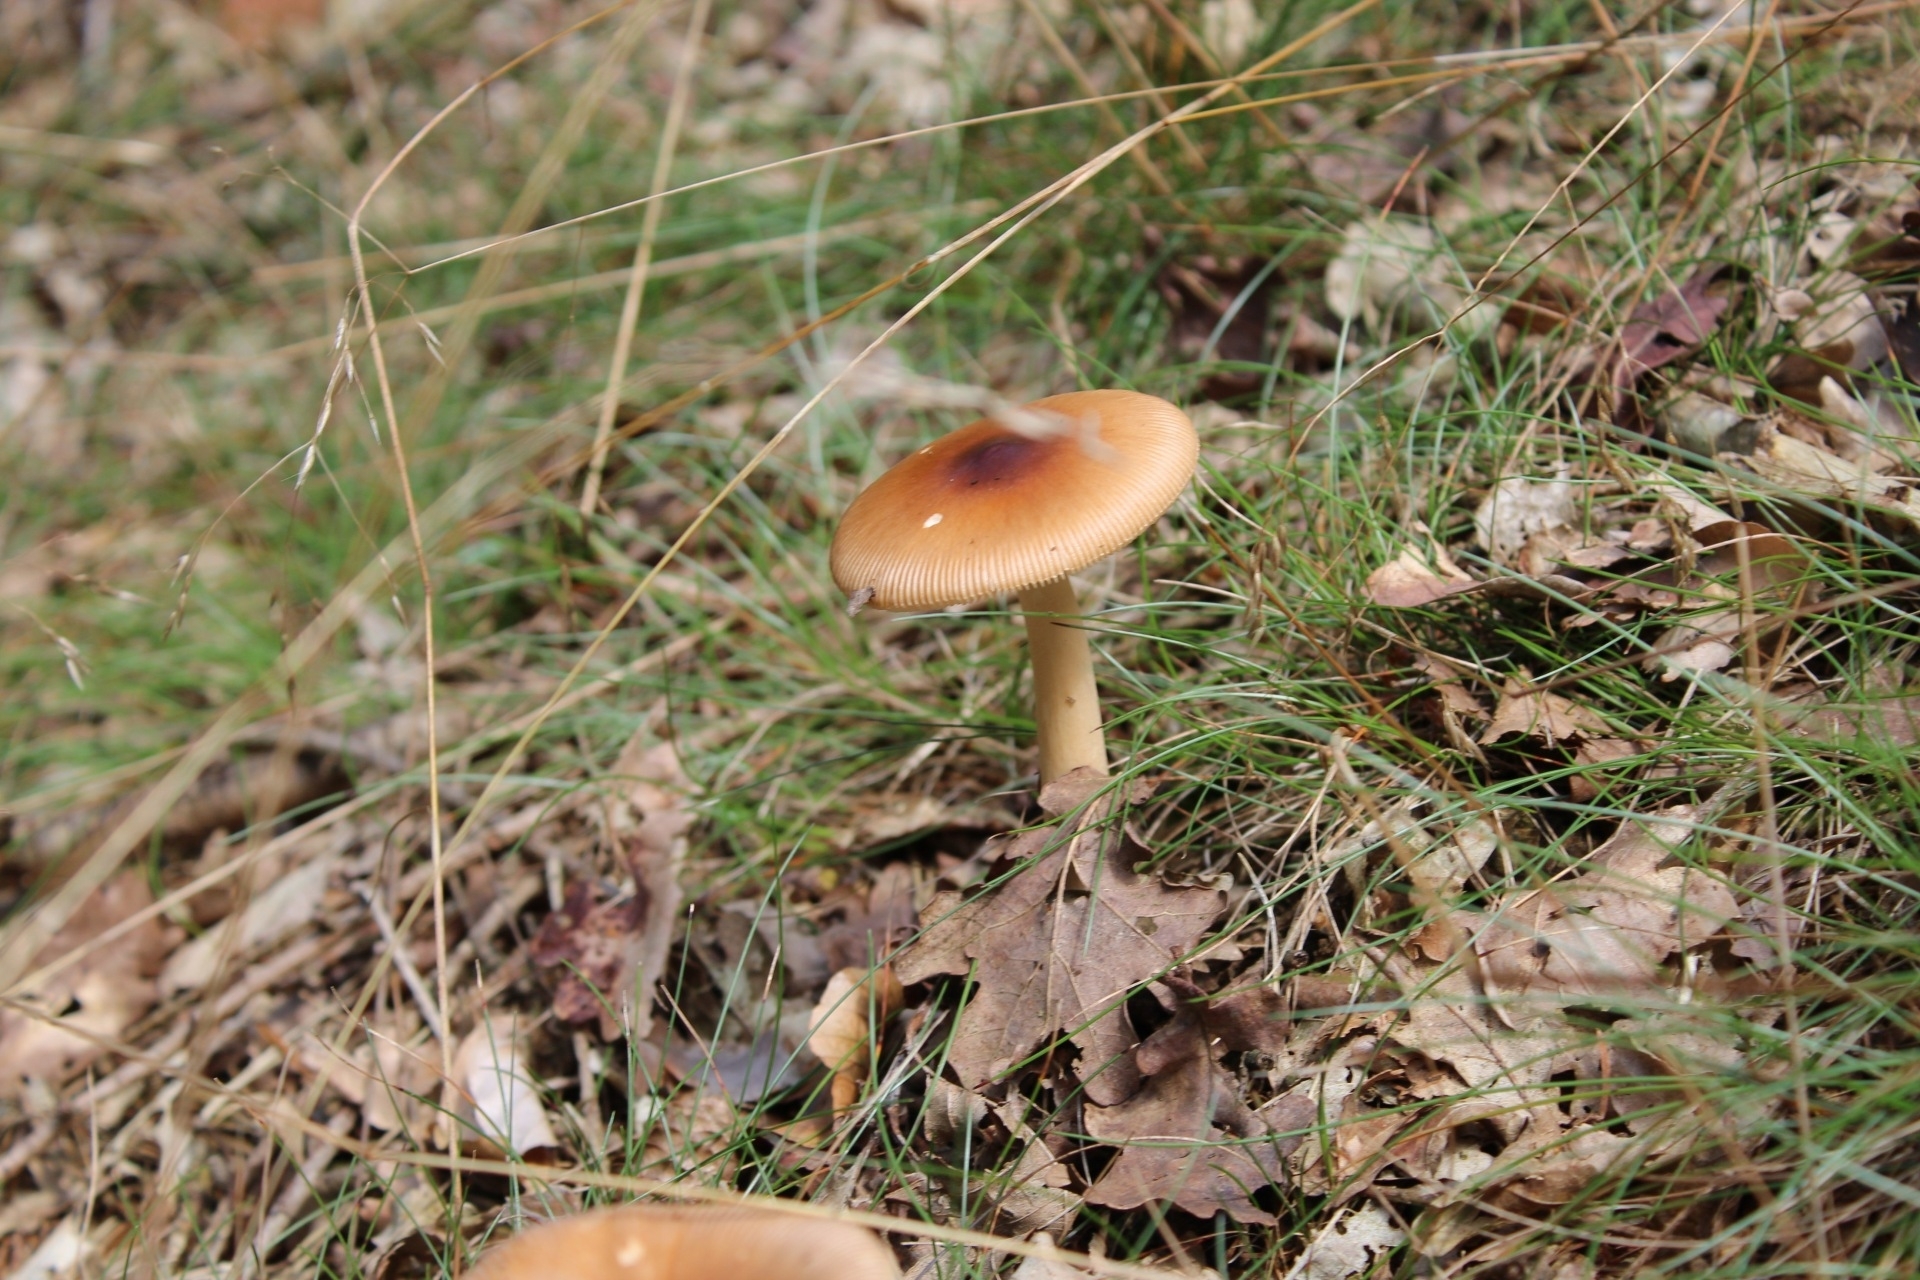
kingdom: Fungi
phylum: Basidiomycota
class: Agaricomycetes
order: Agaricales
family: Amanitaceae
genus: Amanita
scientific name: Amanita fulva
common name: Tawny grisette
